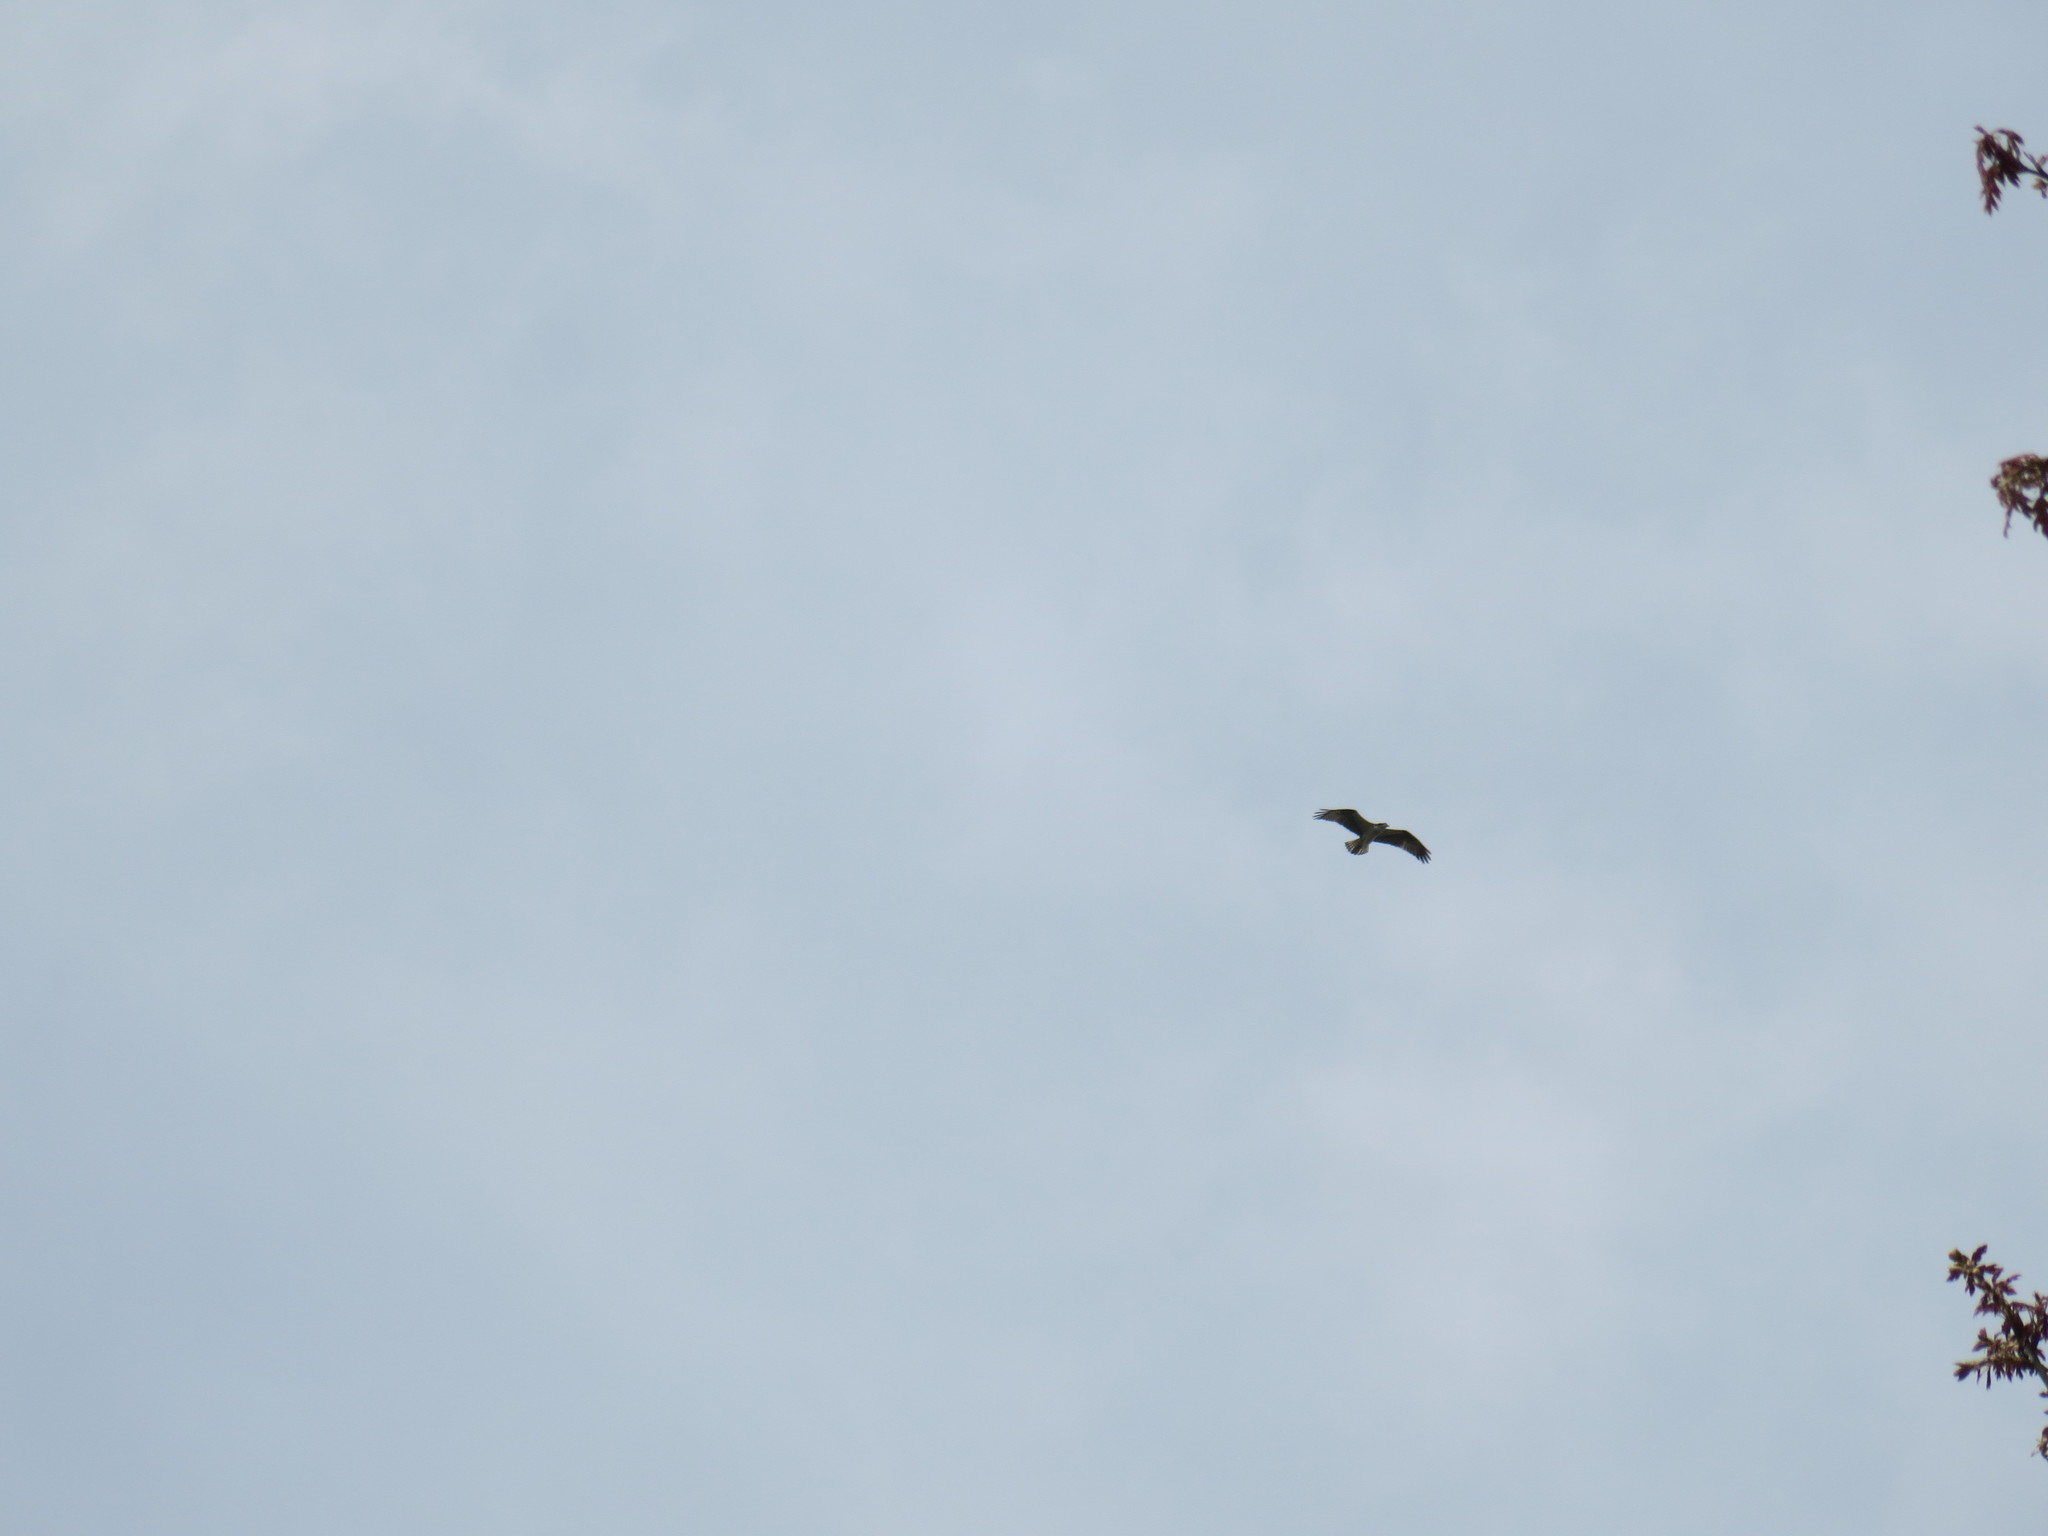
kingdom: Animalia
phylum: Chordata
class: Aves
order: Accipitriformes
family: Pandionidae
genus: Pandion
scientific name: Pandion haliaetus
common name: Osprey
